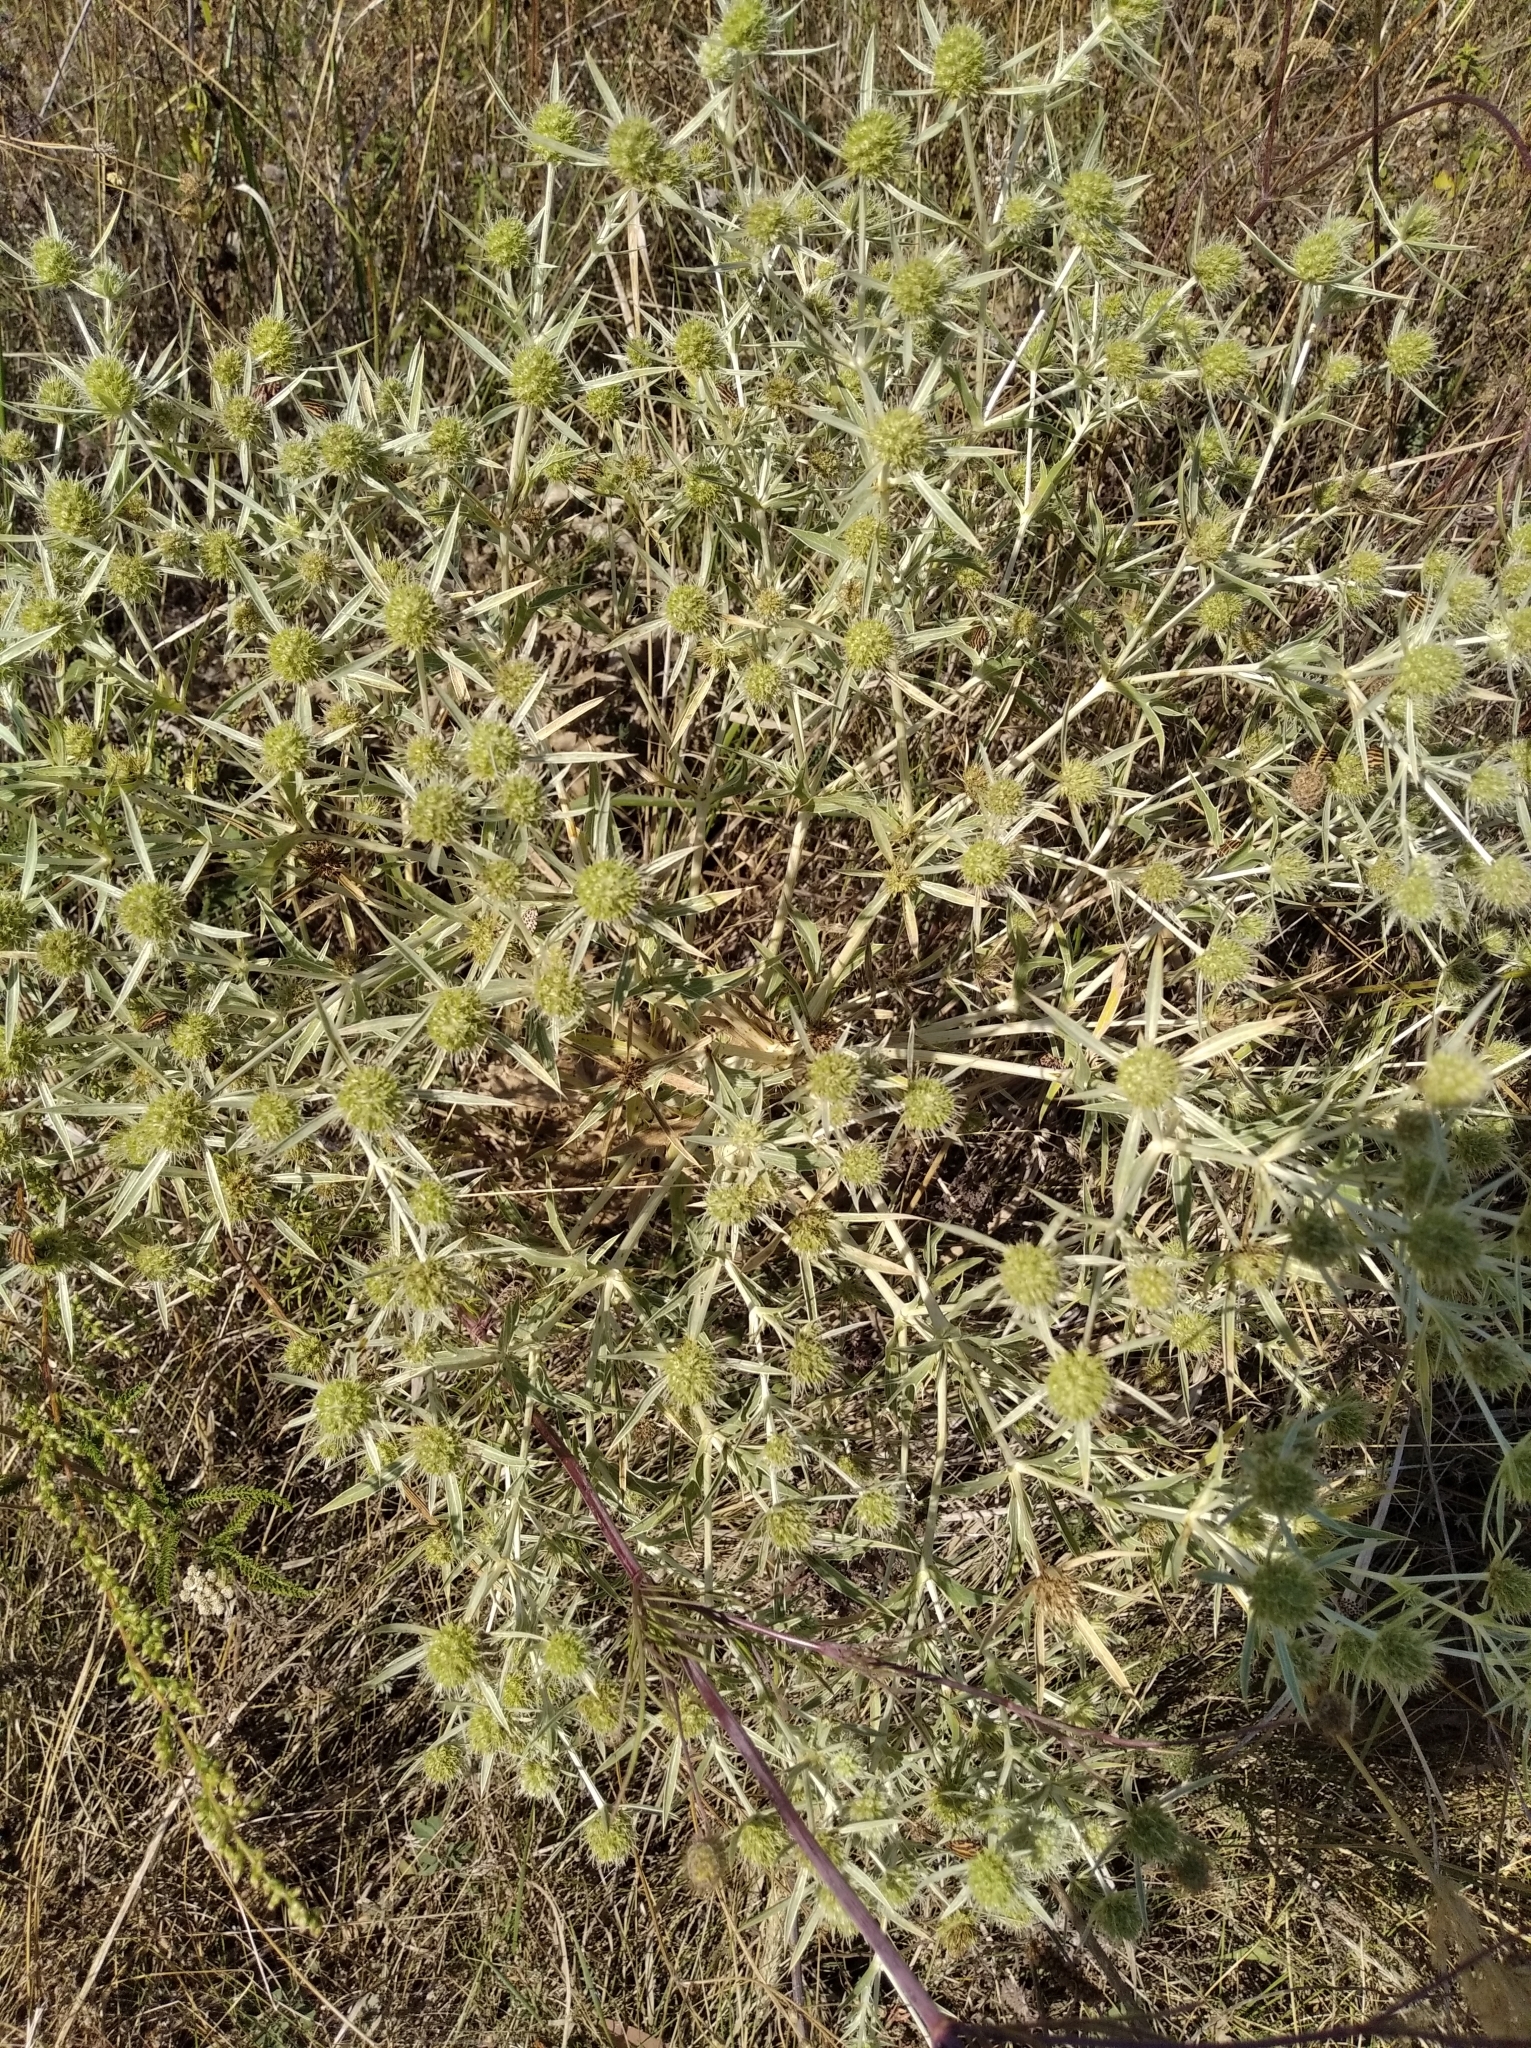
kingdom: Plantae
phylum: Tracheophyta
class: Magnoliopsida
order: Apiales
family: Apiaceae
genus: Eryngium
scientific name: Eryngium campestre
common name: Field eryngo
